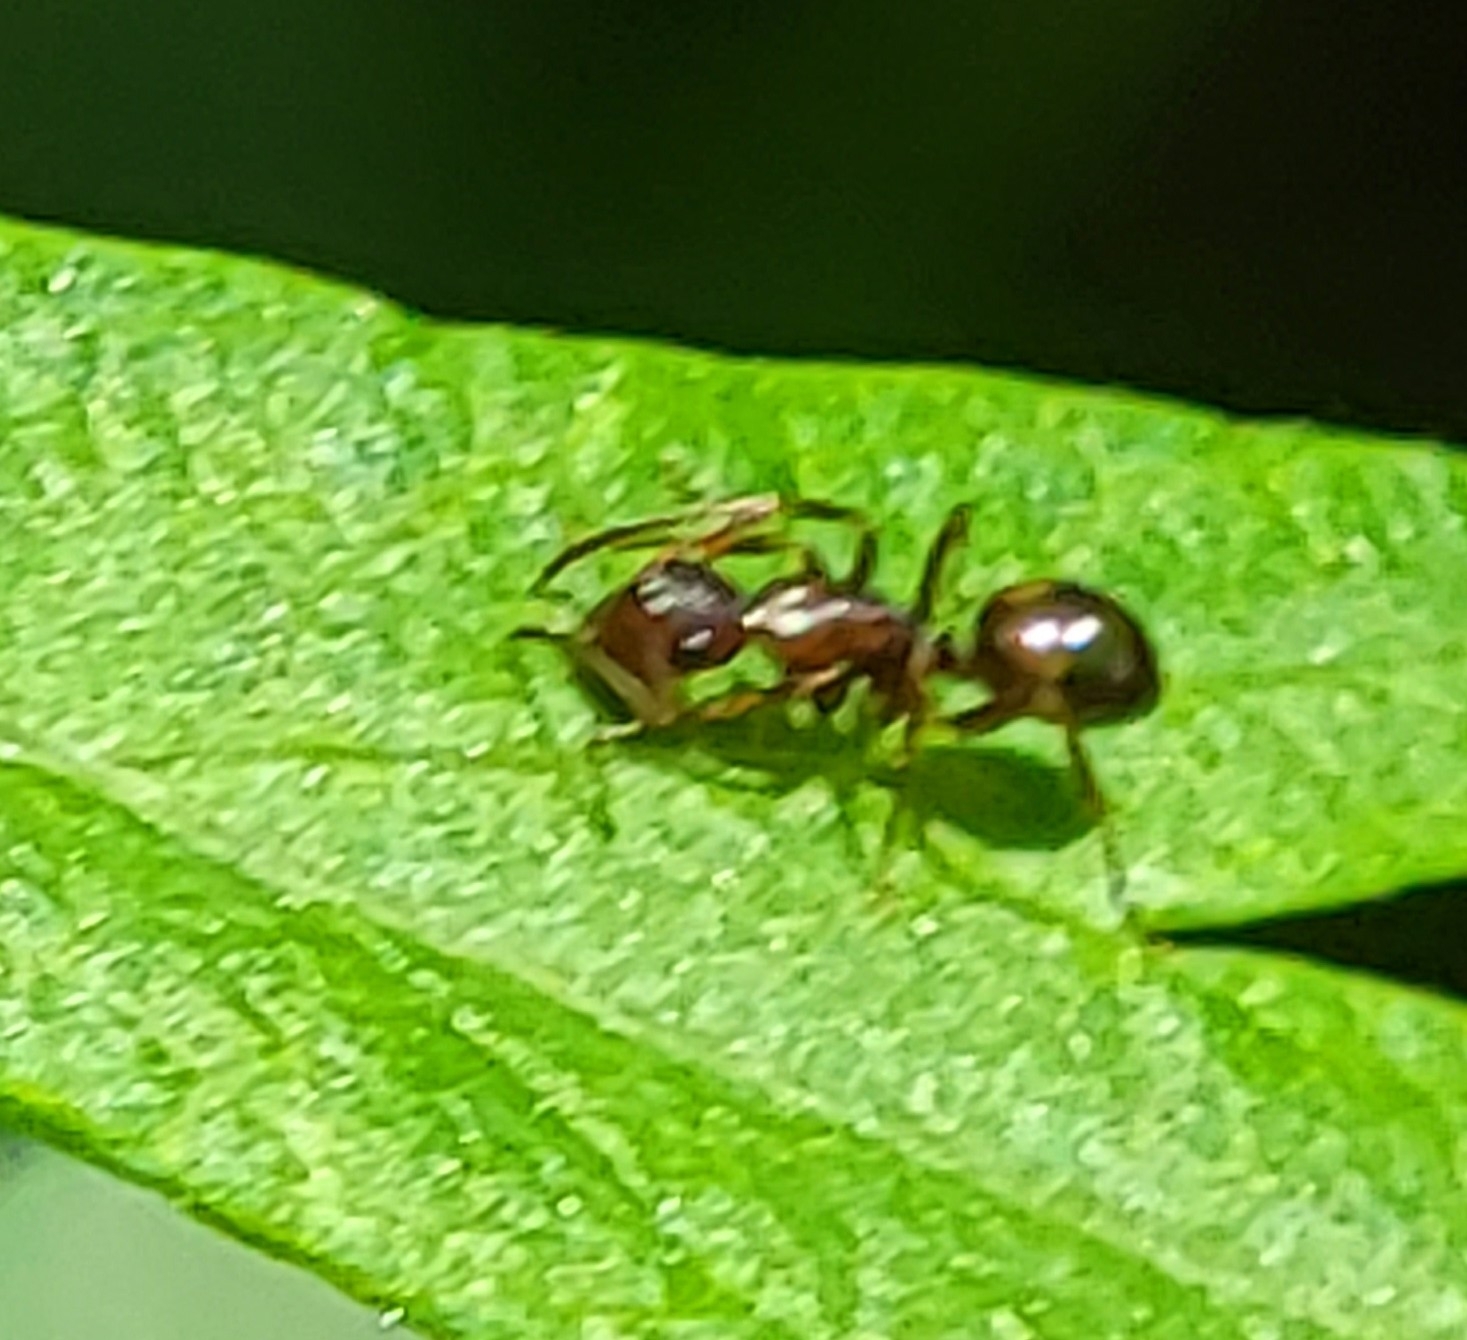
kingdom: Animalia
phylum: Arthropoda
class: Insecta
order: Hymenoptera
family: Formicidae
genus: Camponotus
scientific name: Camponotus subbarbatus
